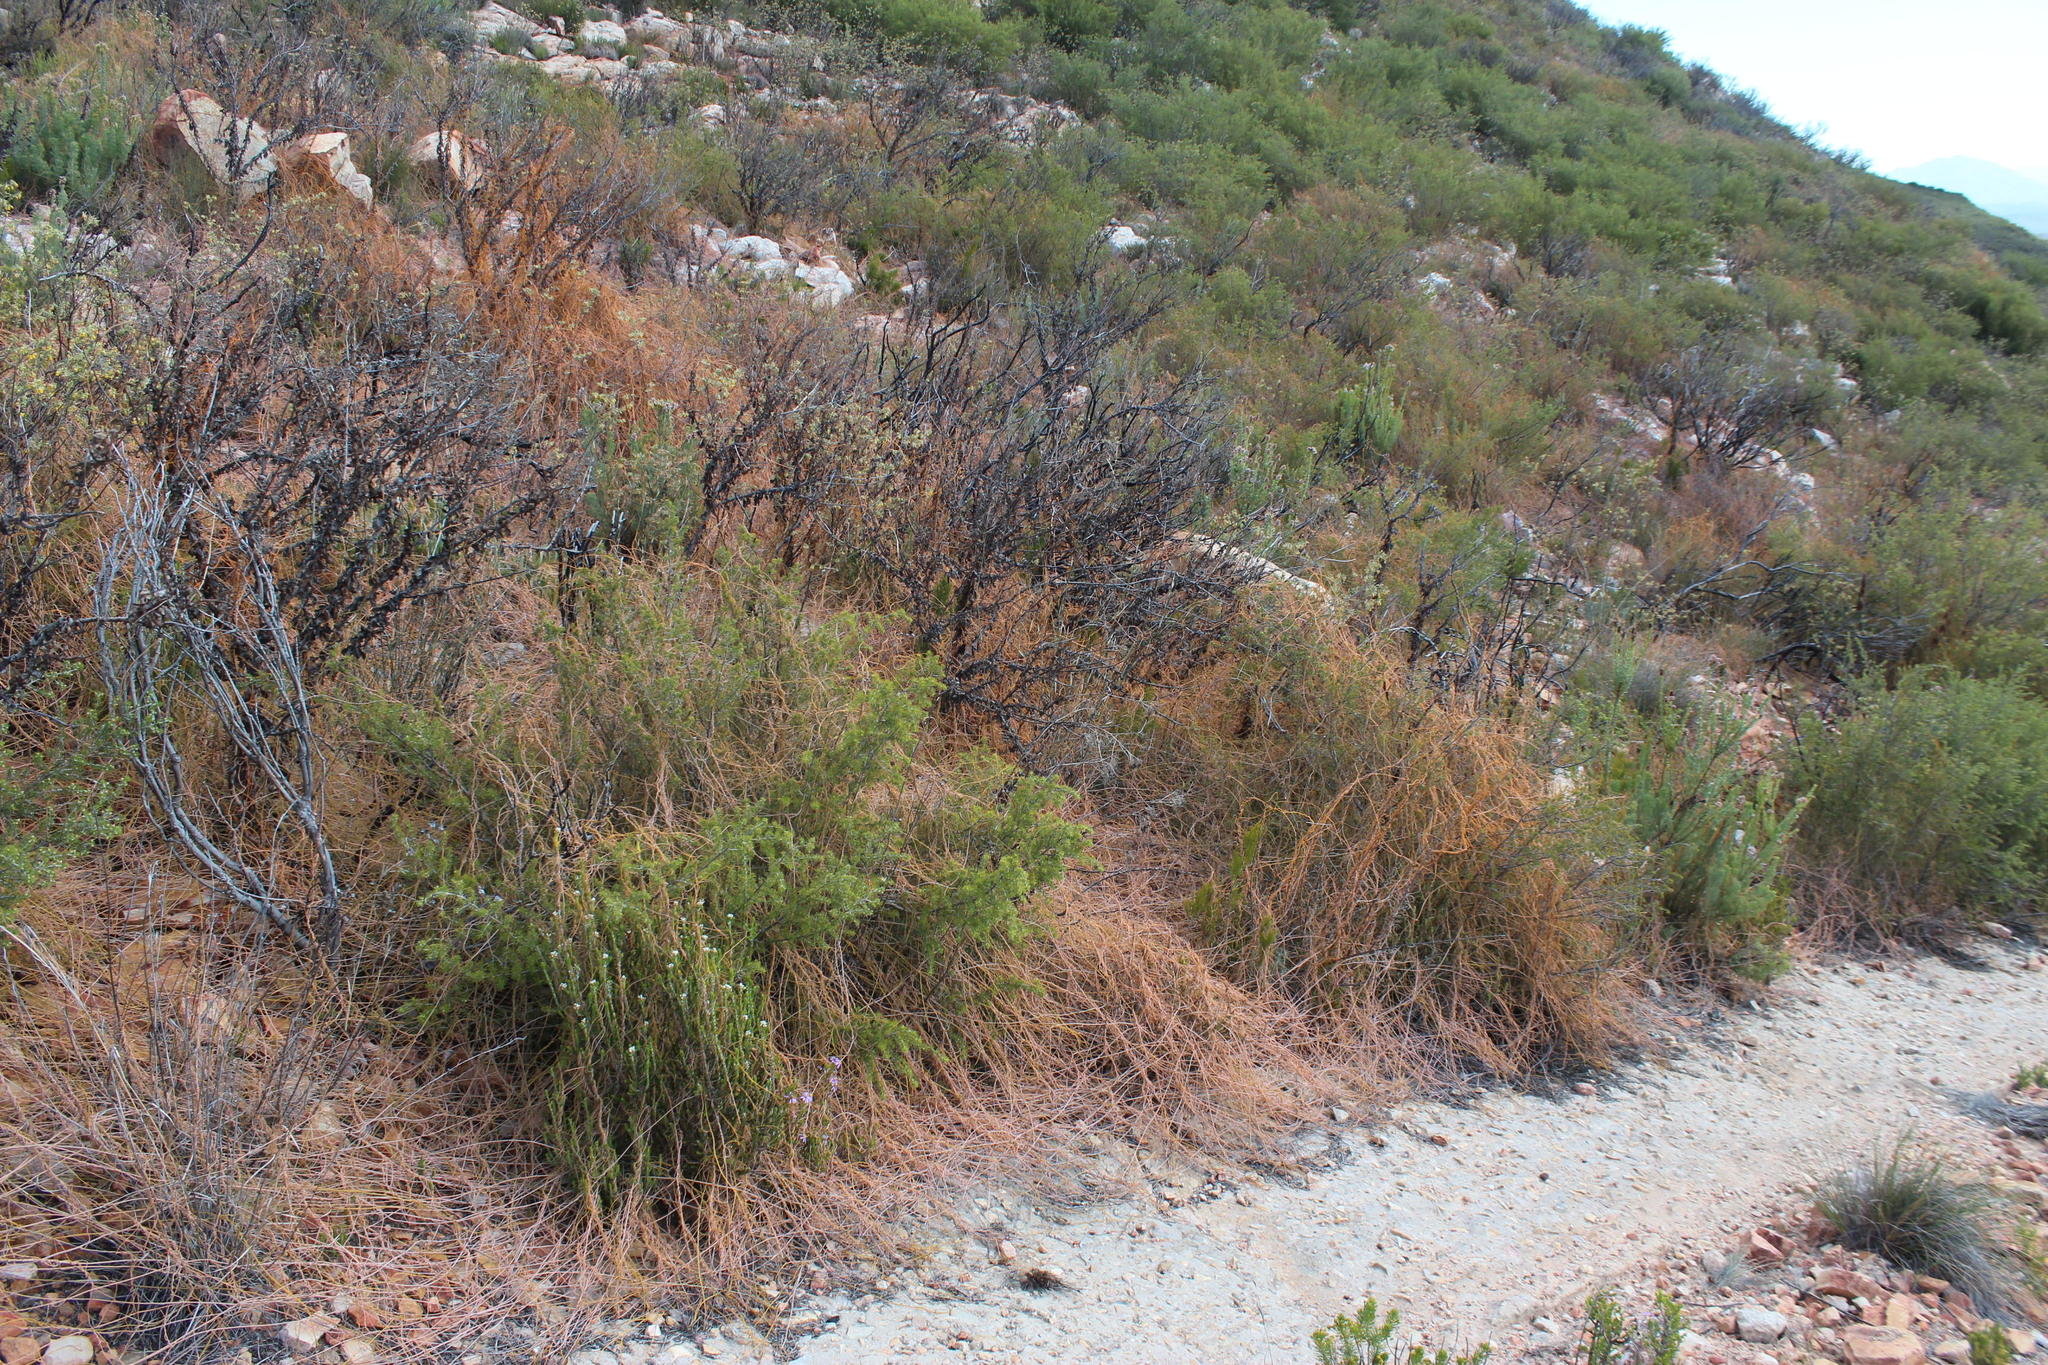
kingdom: Plantae
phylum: Tracheophyta
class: Magnoliopsida
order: Laurales
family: Lauraceae
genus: Cassytha
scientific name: Cassytha ciliolata
